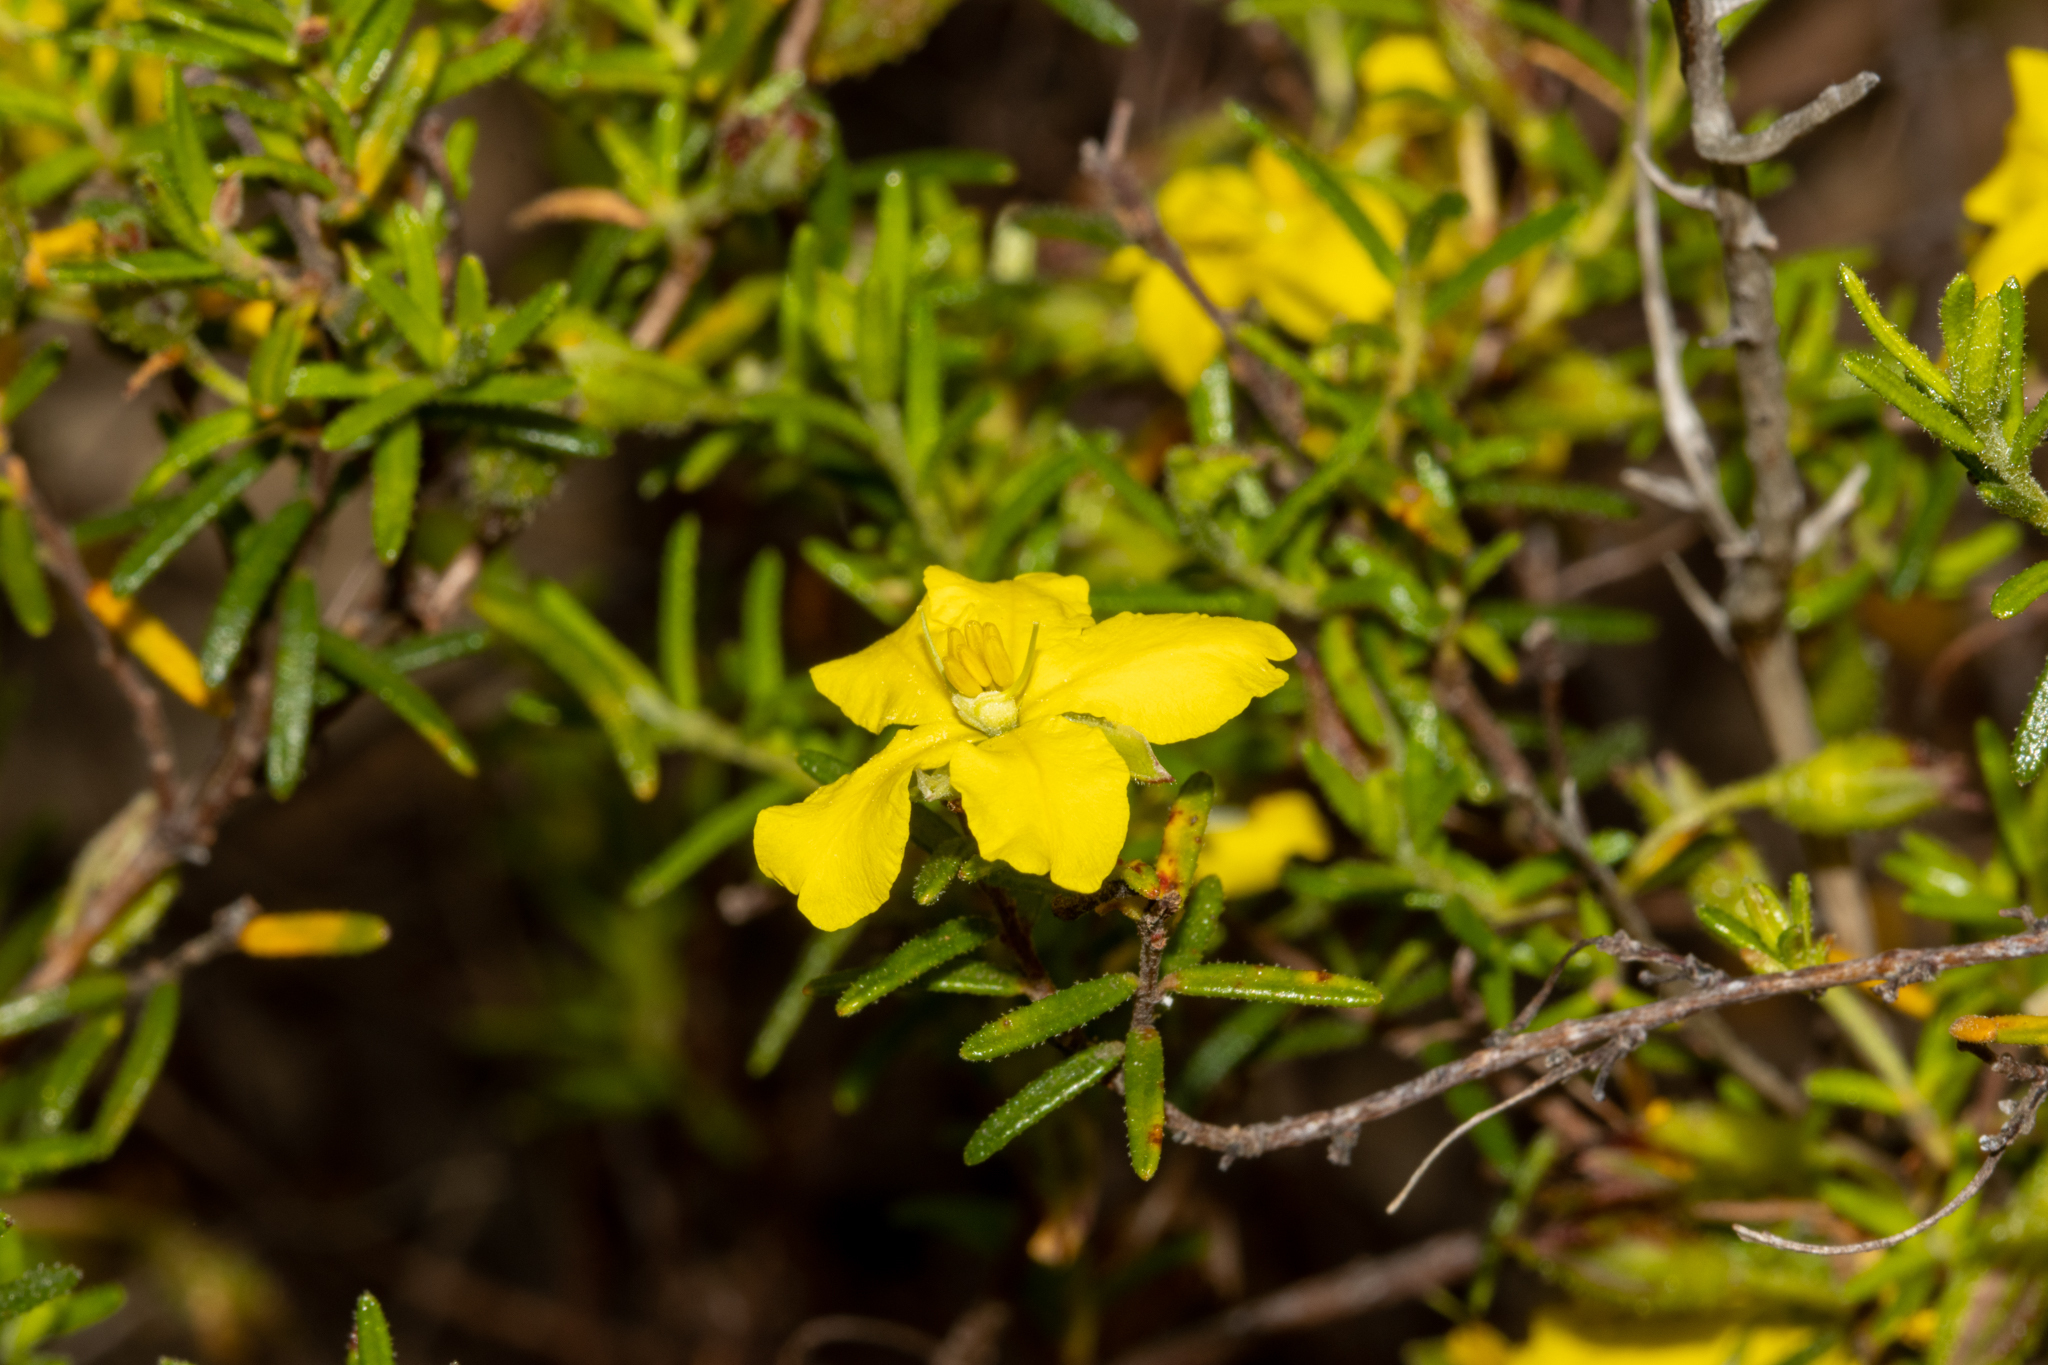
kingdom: Plantae
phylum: Tracheophyta
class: Magnoliopsida
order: Dilleniales
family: Dilleniaceae
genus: Hibbertia
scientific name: Hibbertia glebosa
